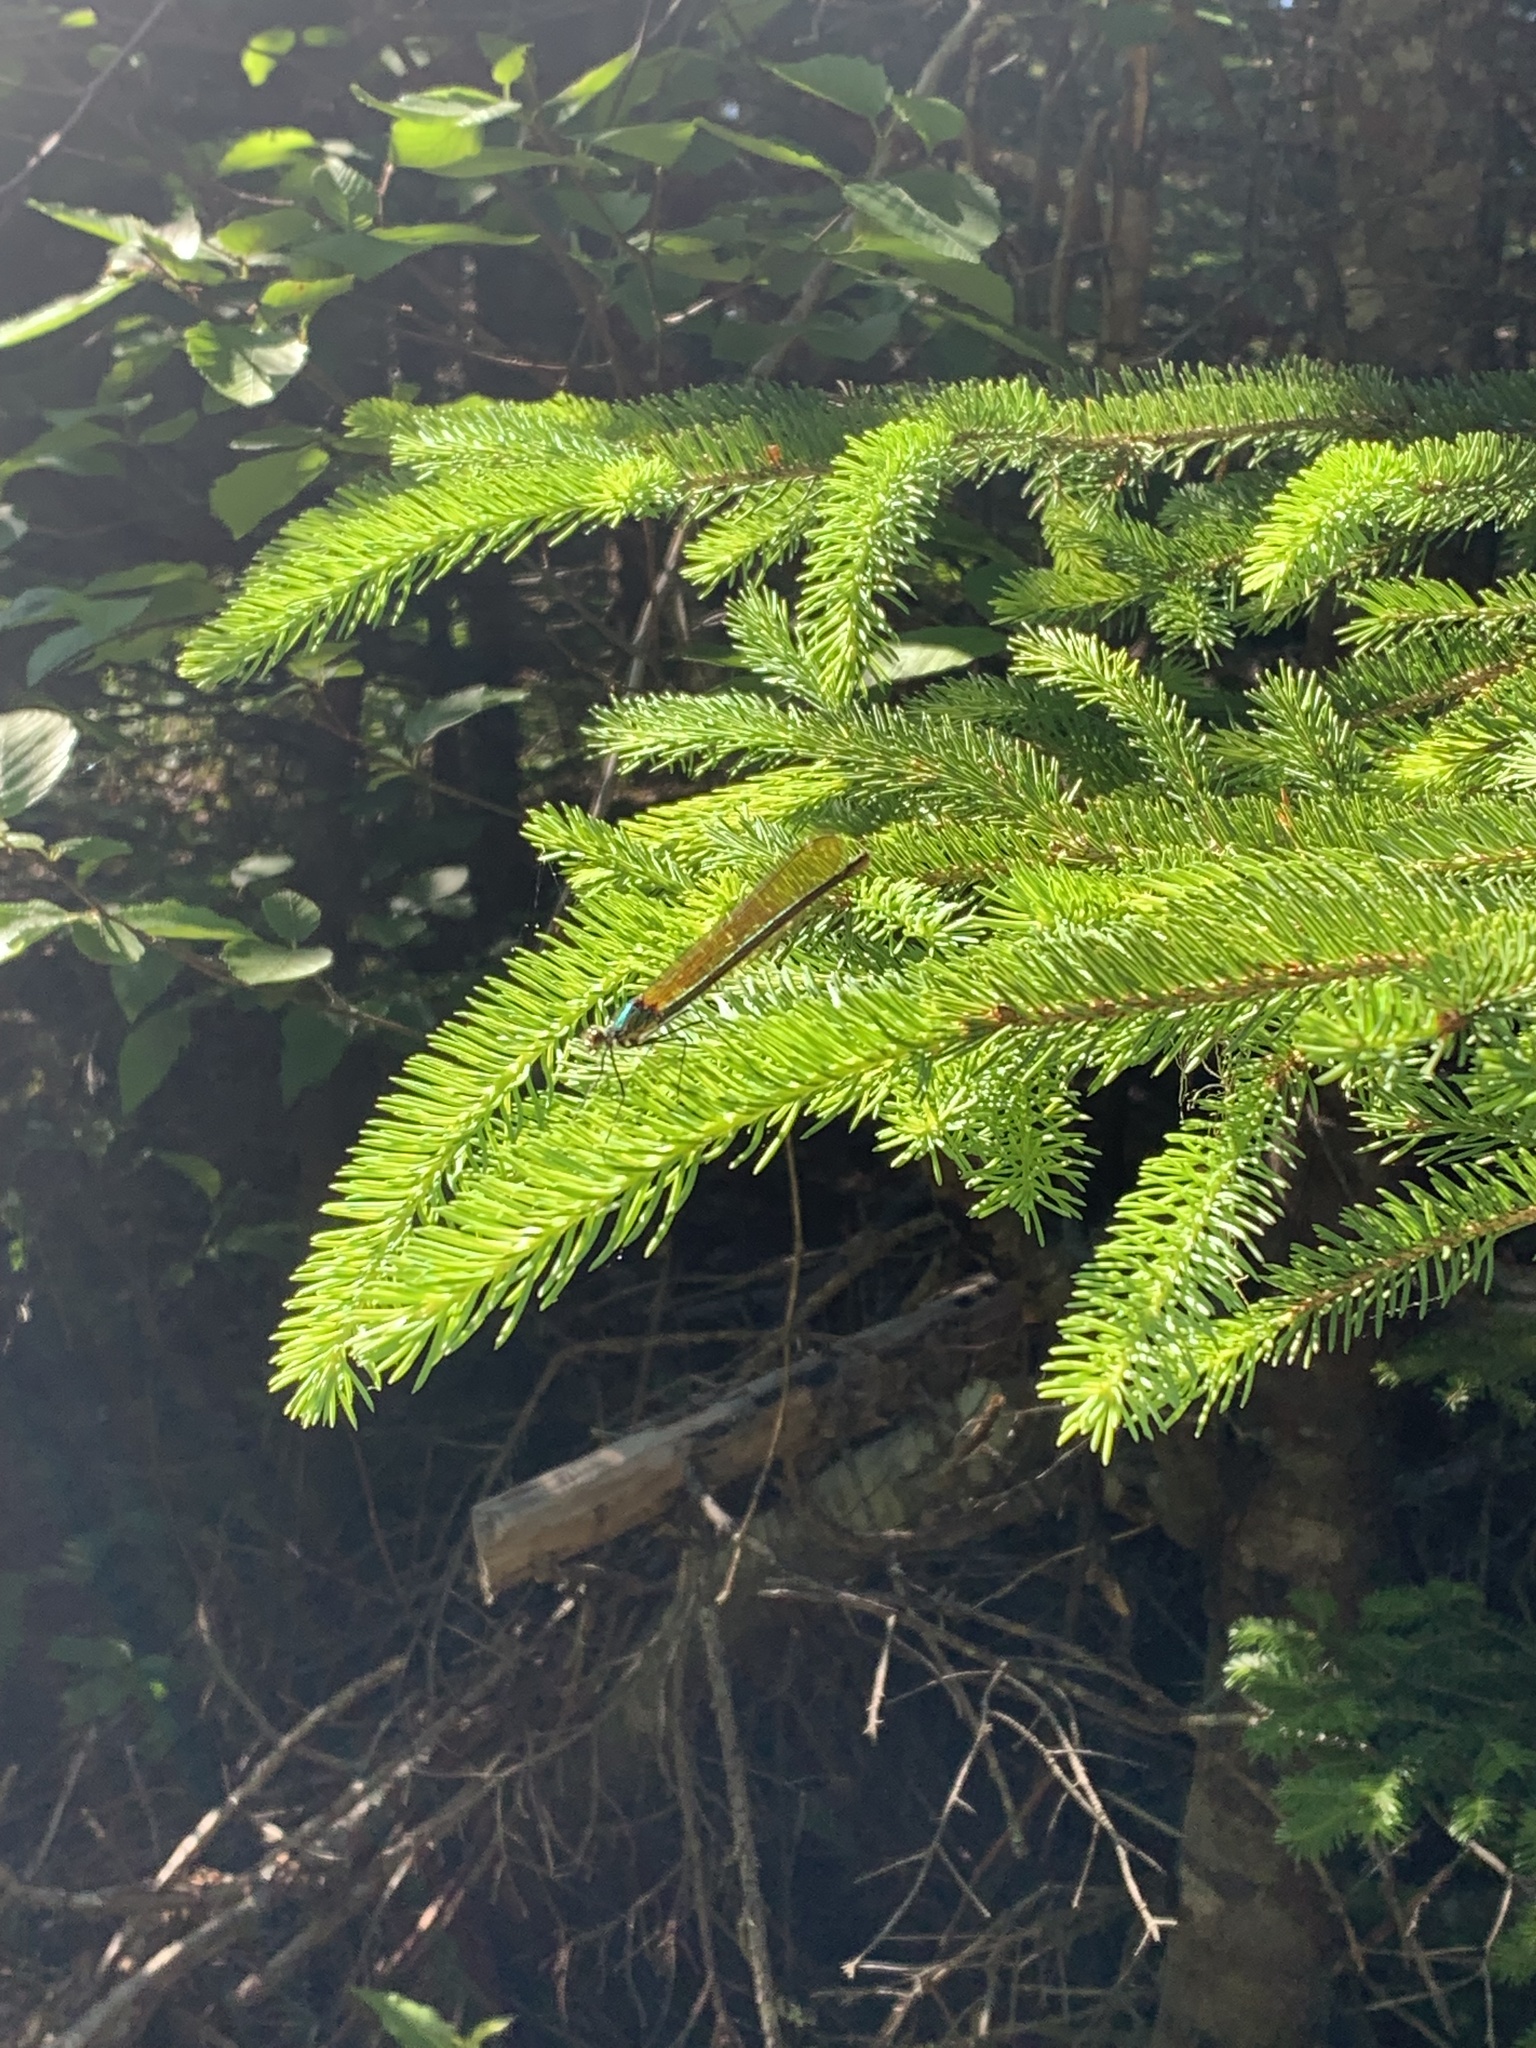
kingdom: Animalia
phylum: Arthropoda
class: Insecta
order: Odonata
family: Calopterygidae
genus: Calopteryx
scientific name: Calopteryx amata
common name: Superb jewelwing
